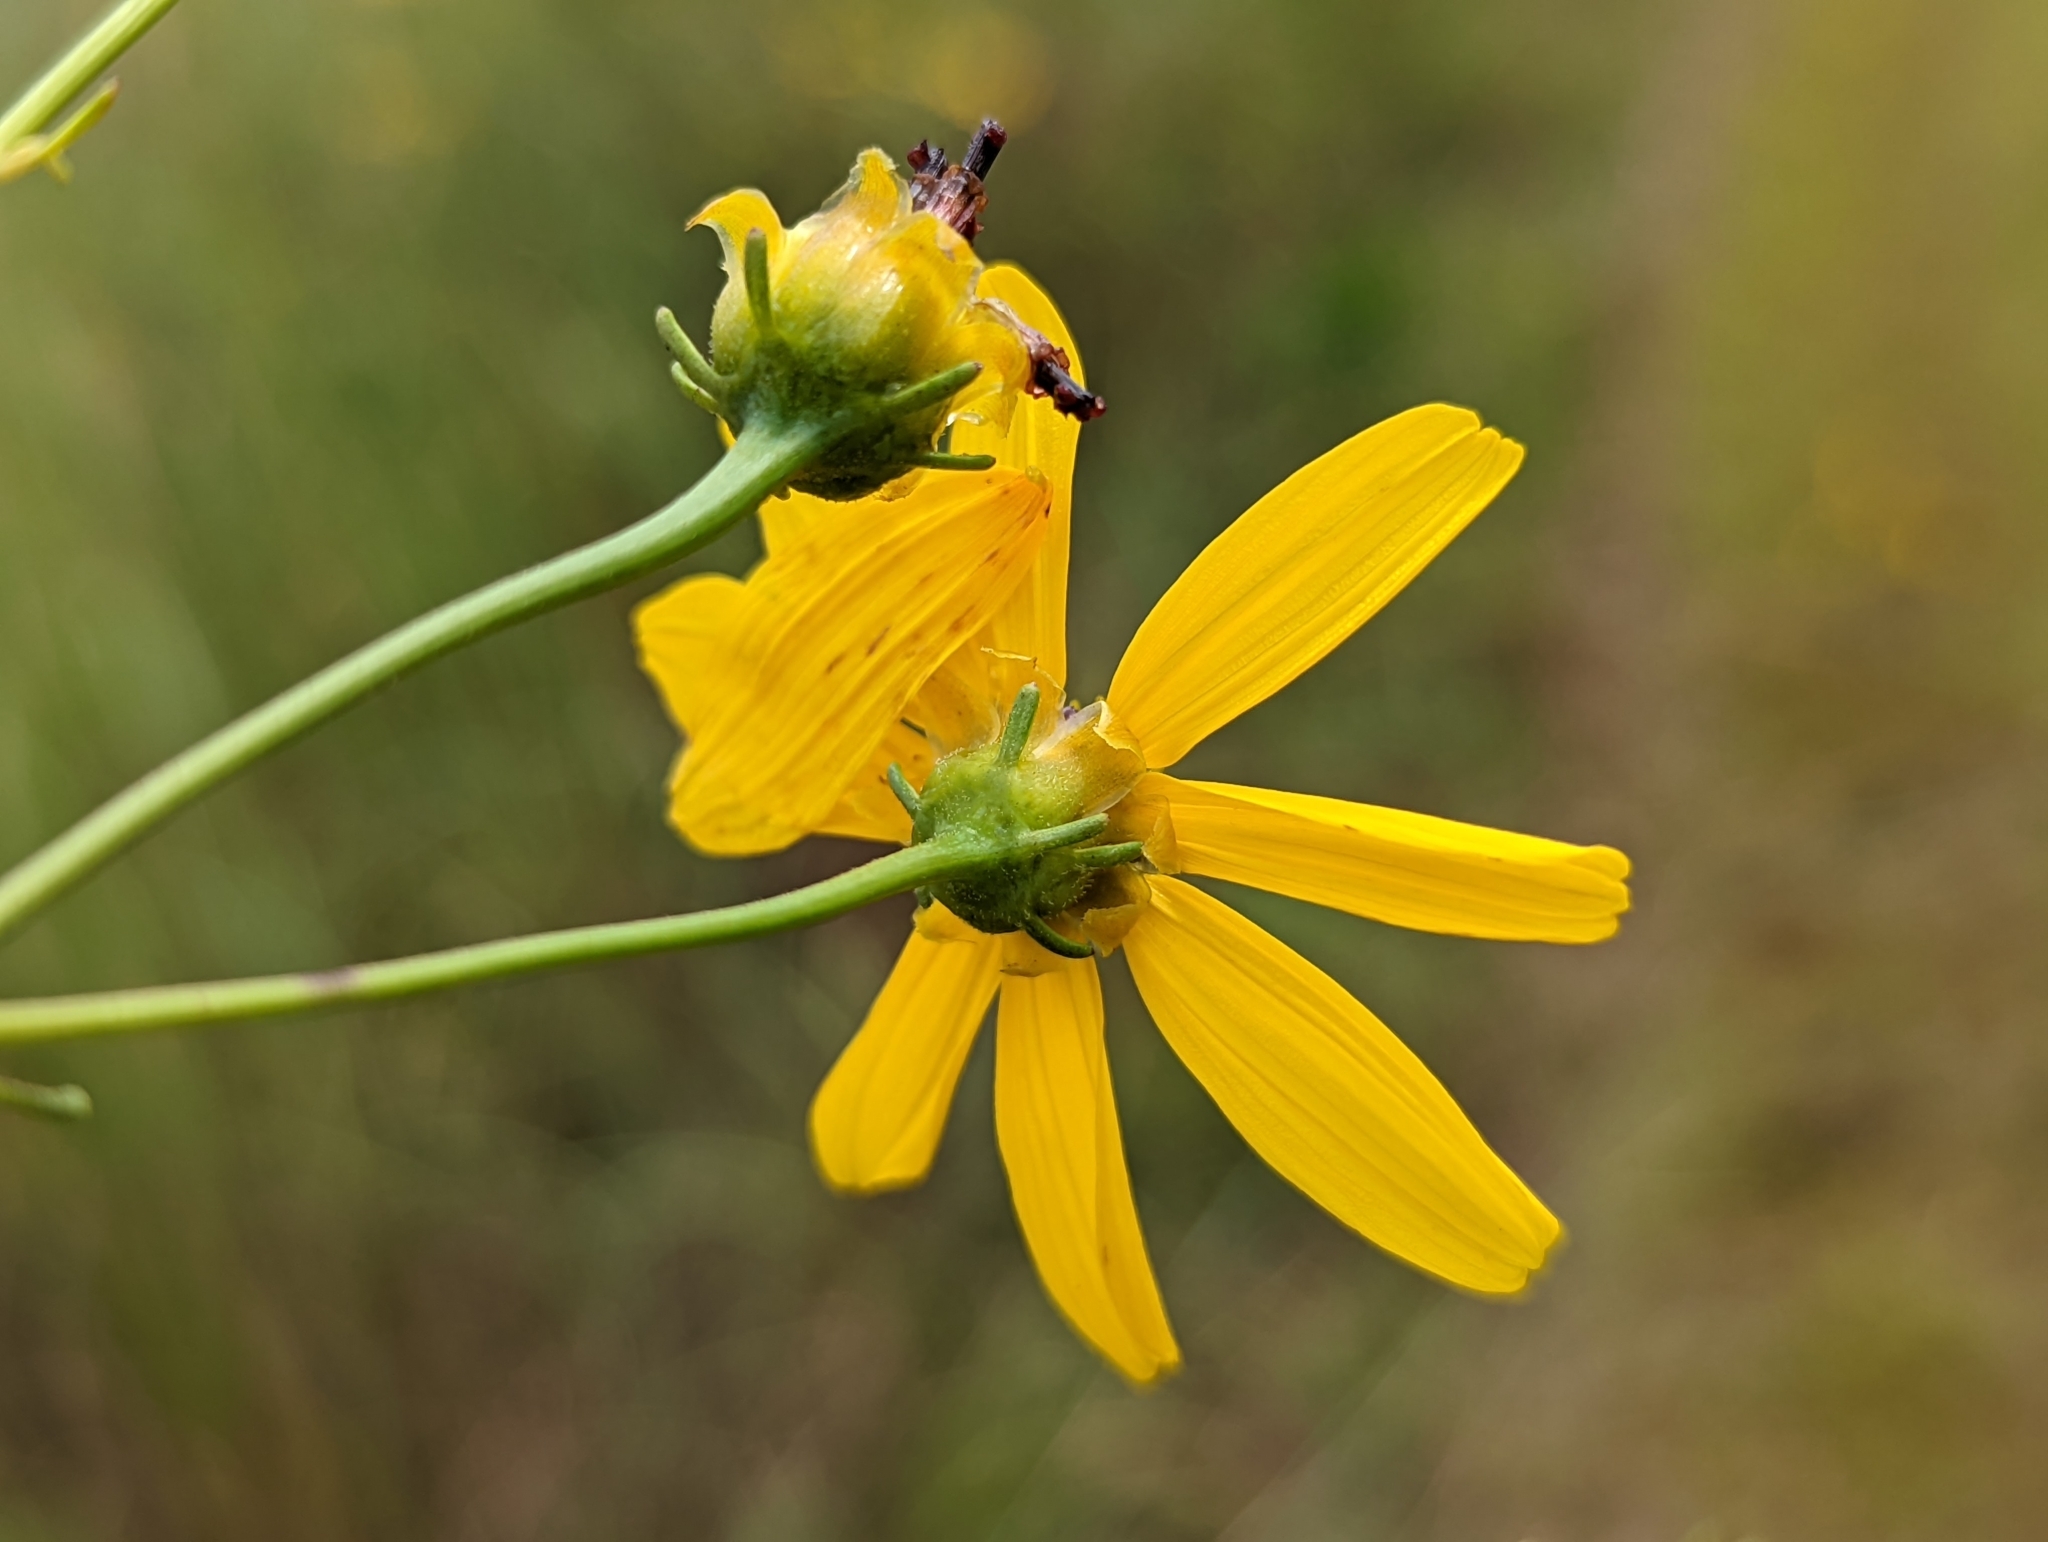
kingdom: Plantae
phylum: Tracheophyta
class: Magnoliopsida
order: Asterales
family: Asteraceae
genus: Coreopsis
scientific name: Coreopsis tripteris
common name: Tall coreopsis
